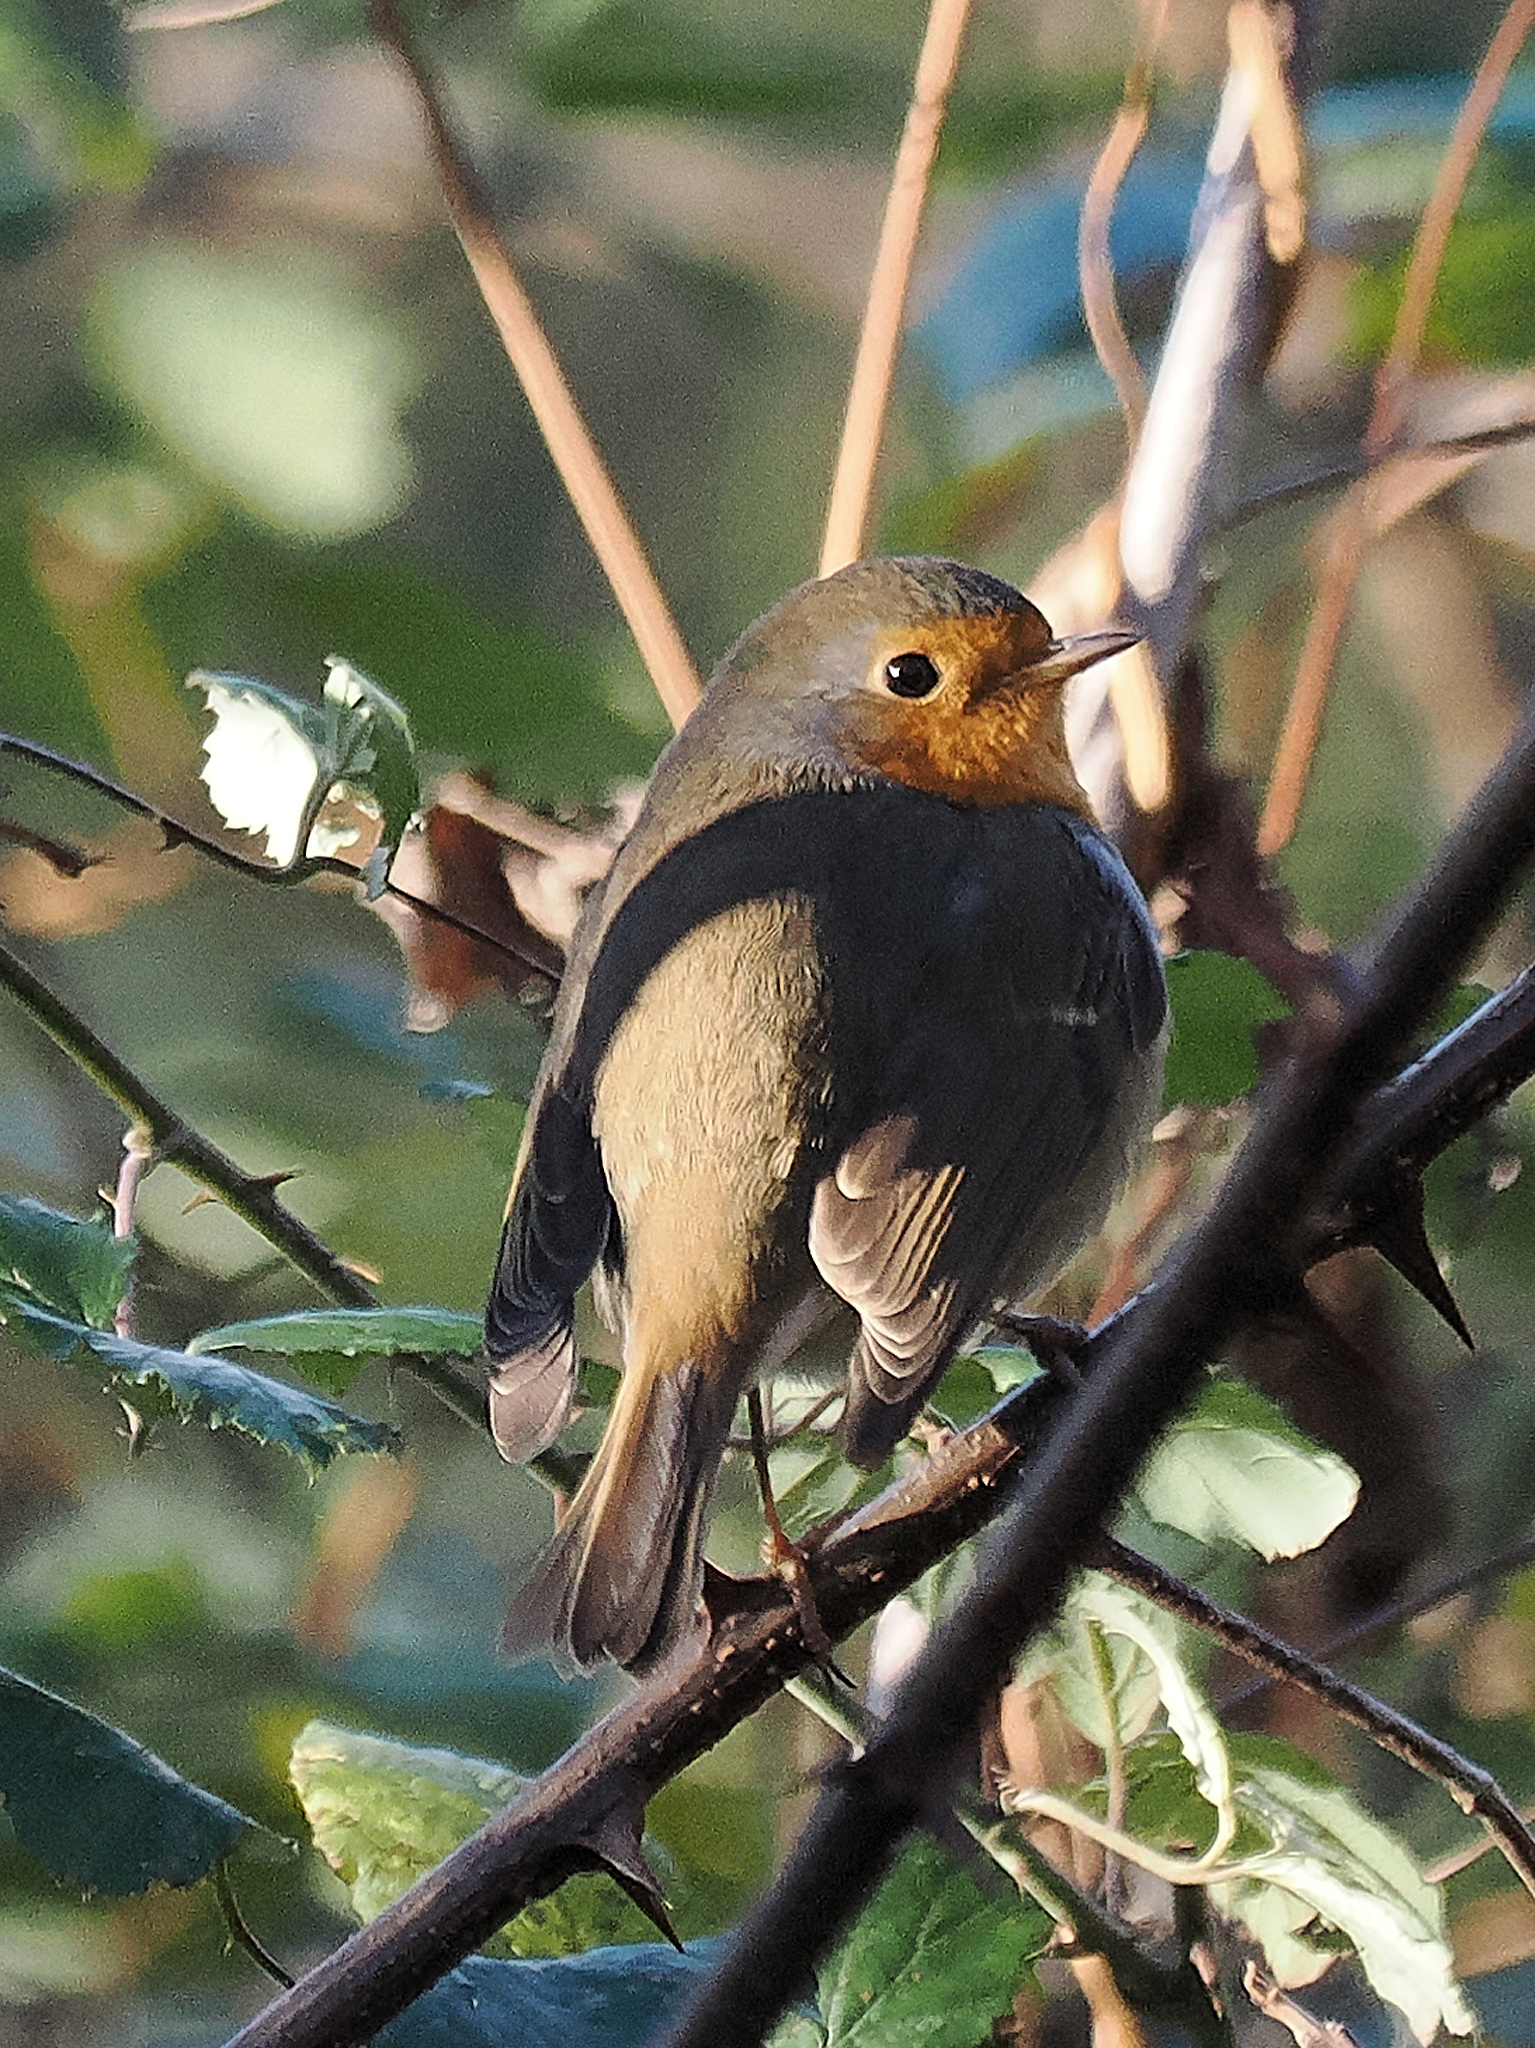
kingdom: Animalia
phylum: Chordata
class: Aves
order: Passeriformes
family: Muscicapidae
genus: Erithacus
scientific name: Erithacus rubecula
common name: European robin
